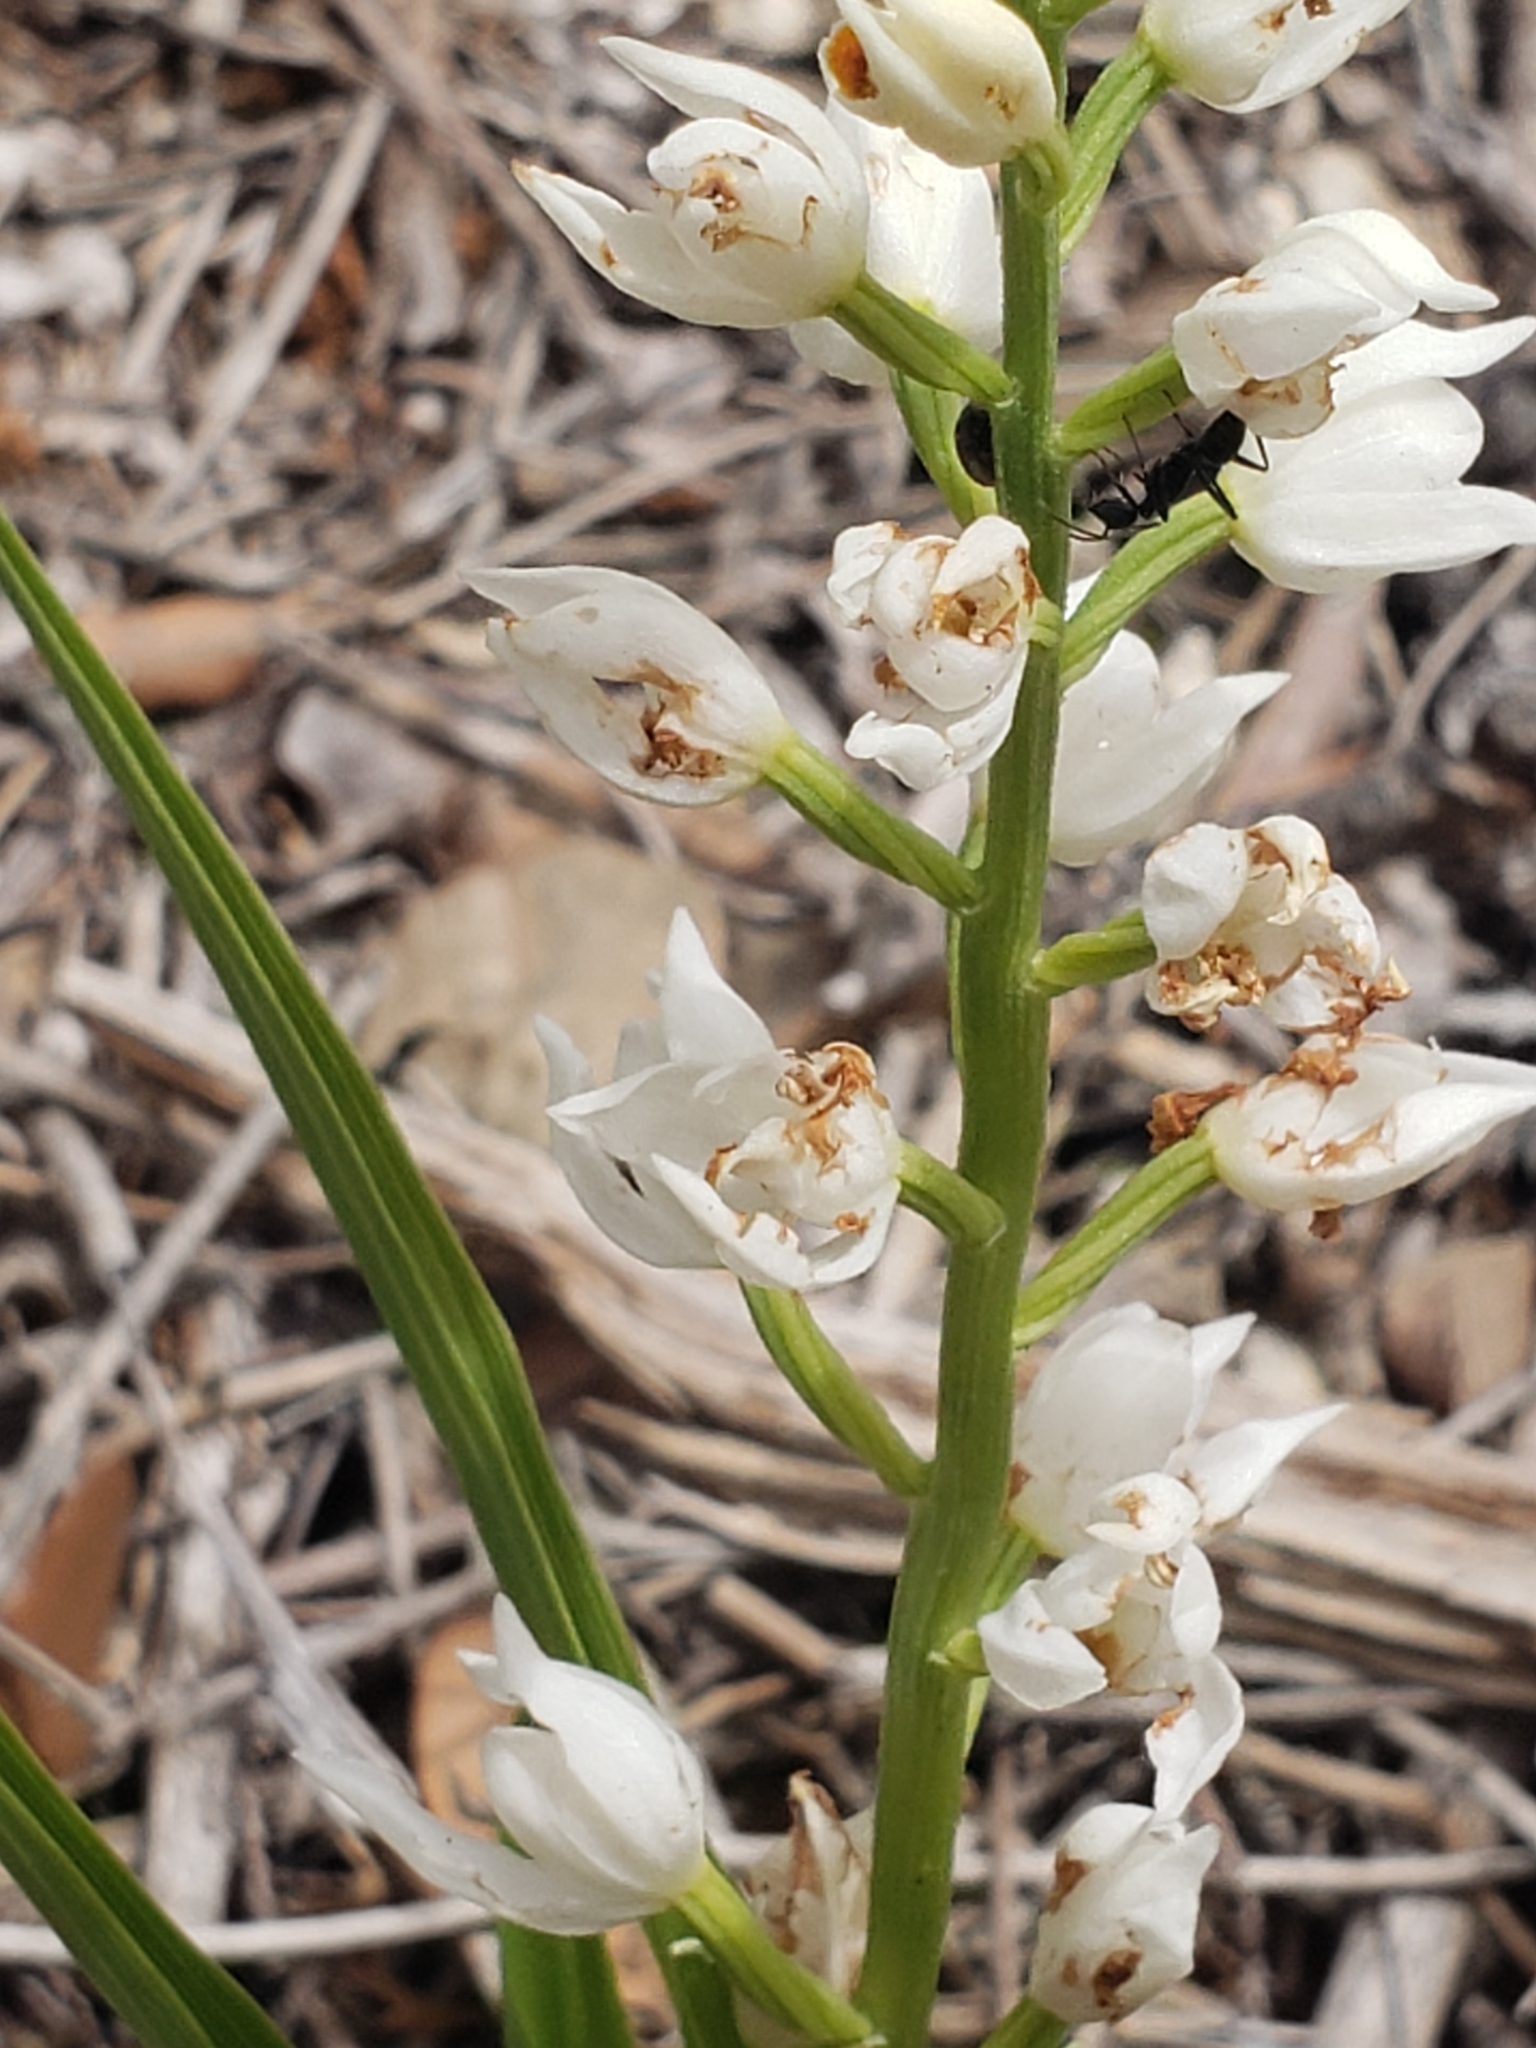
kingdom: Plantae
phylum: Tracheophyta
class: Liliopsida
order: Asparagales
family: Orchidaceae
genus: Cephalanthera
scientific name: Cephalanthera longifolia
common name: Narrow-leaved helleborine
